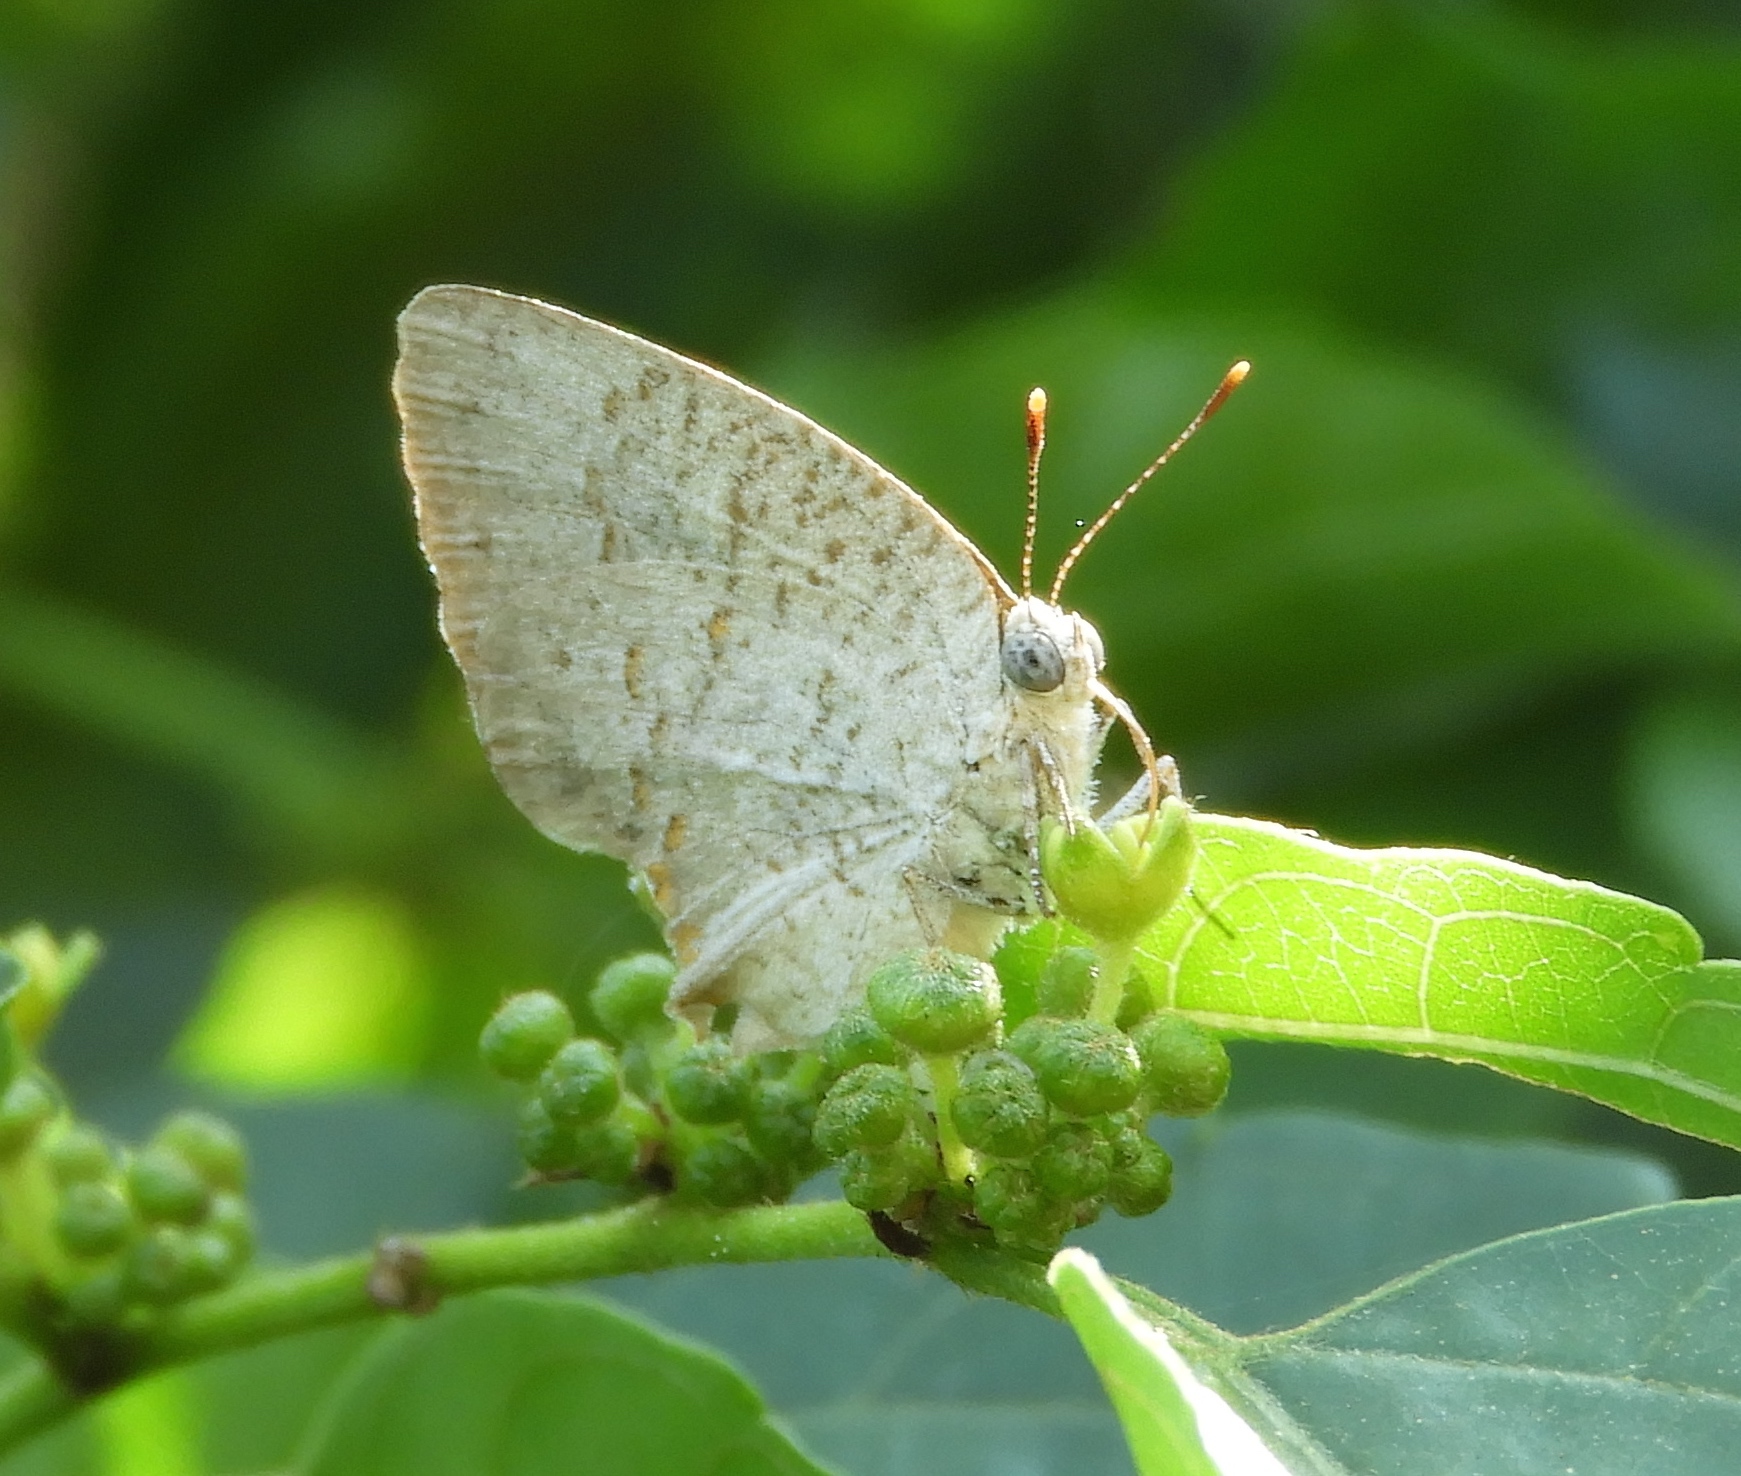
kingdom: Animalia
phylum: Arthropoda
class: Insecta
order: Lepidoptera
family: Lycaenidae
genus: Hypostrymon
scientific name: Hypostrymon critola
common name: Sonoran hairstreak
